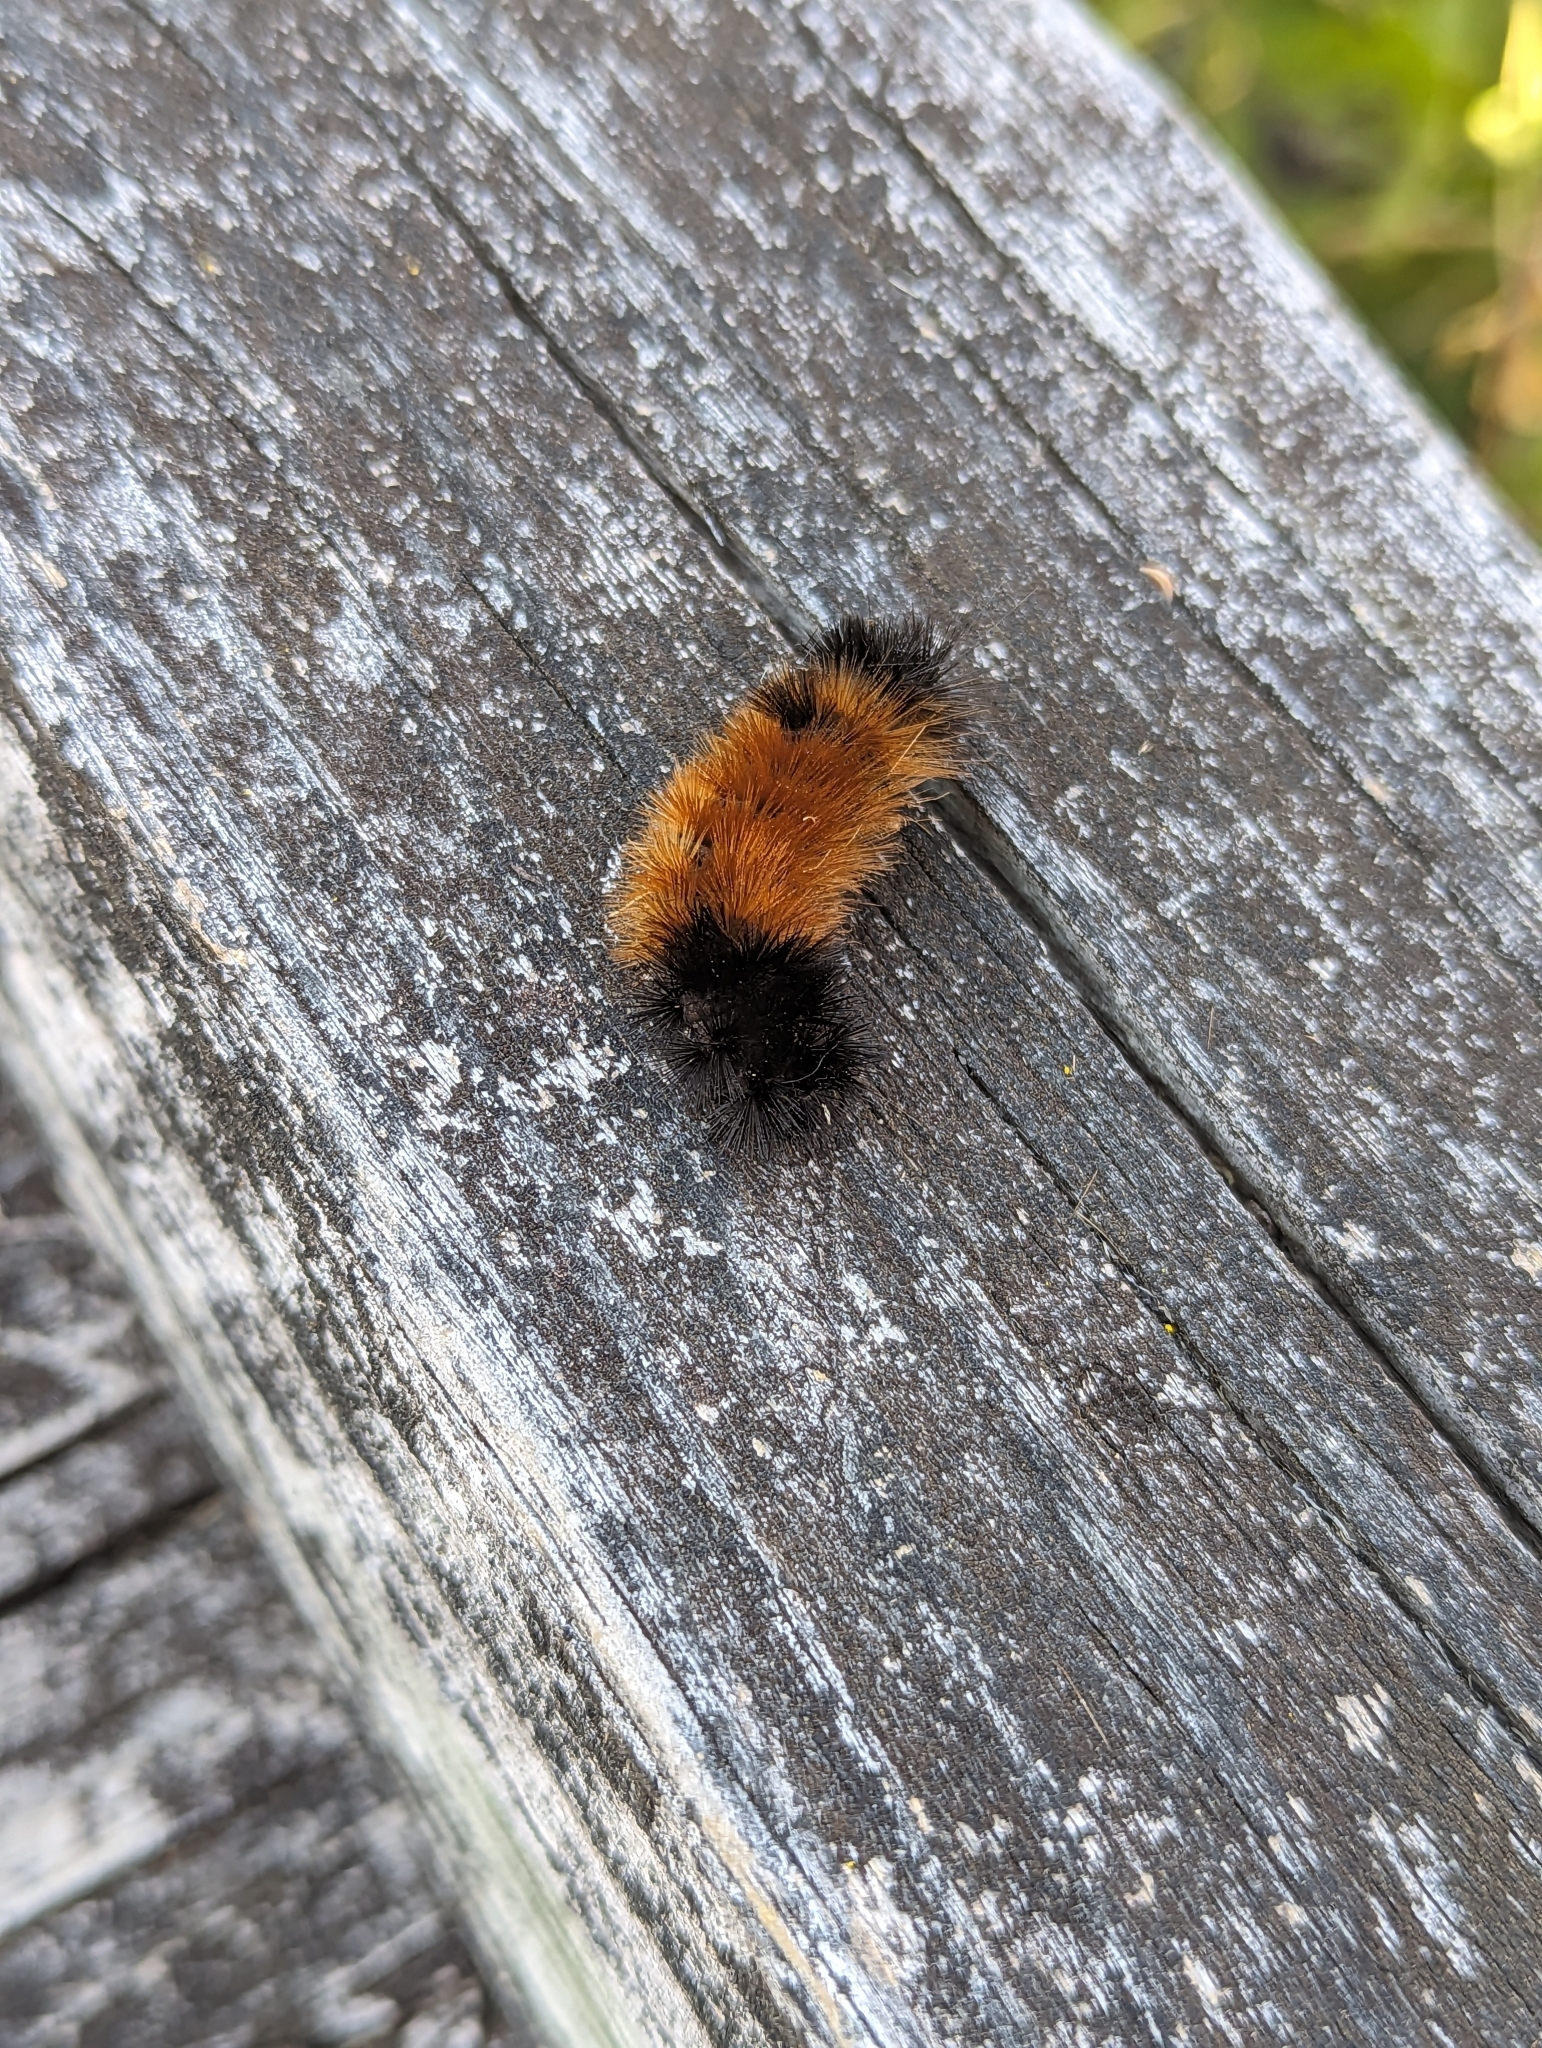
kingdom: Animalia
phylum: Arthropoda
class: Insecta
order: Lepidoptera
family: Erebidae
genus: Pyrrharctia
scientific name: Pyrrharctia isabella
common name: Isabella tiger moth
